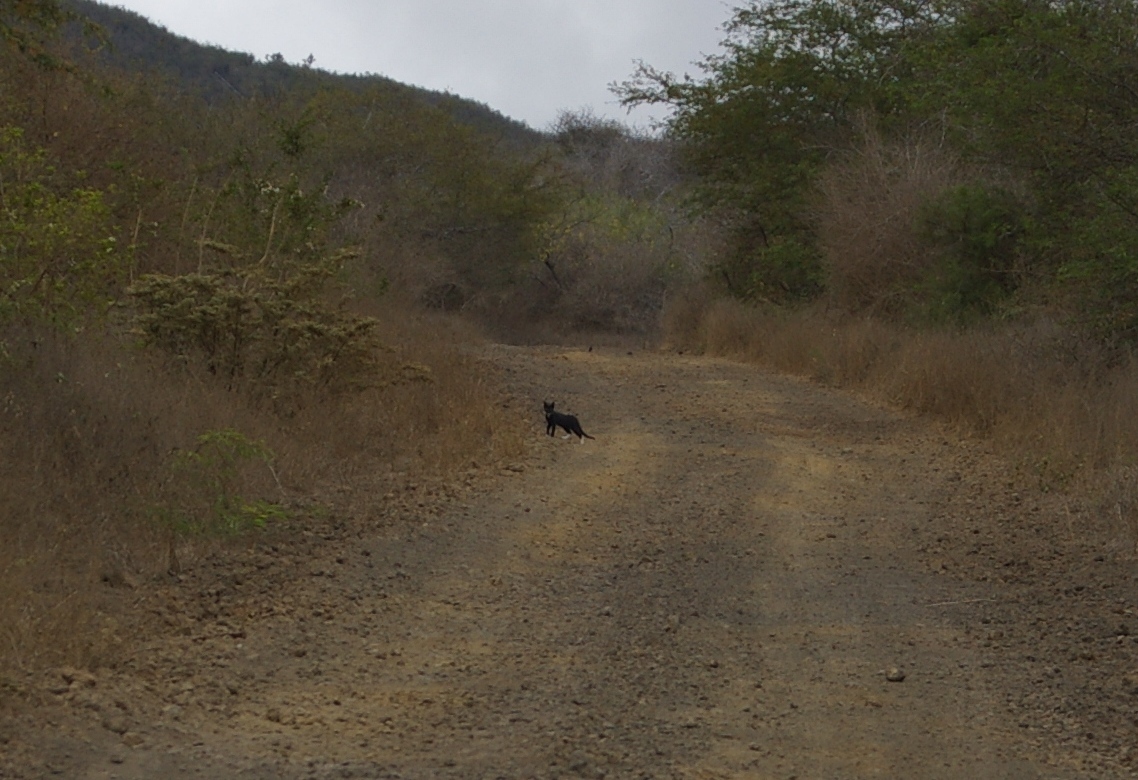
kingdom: Animalia
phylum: Chordata
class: Mammalia
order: Carnivora
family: Felidae
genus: Felis
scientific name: Felis catus
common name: Domestic cat
